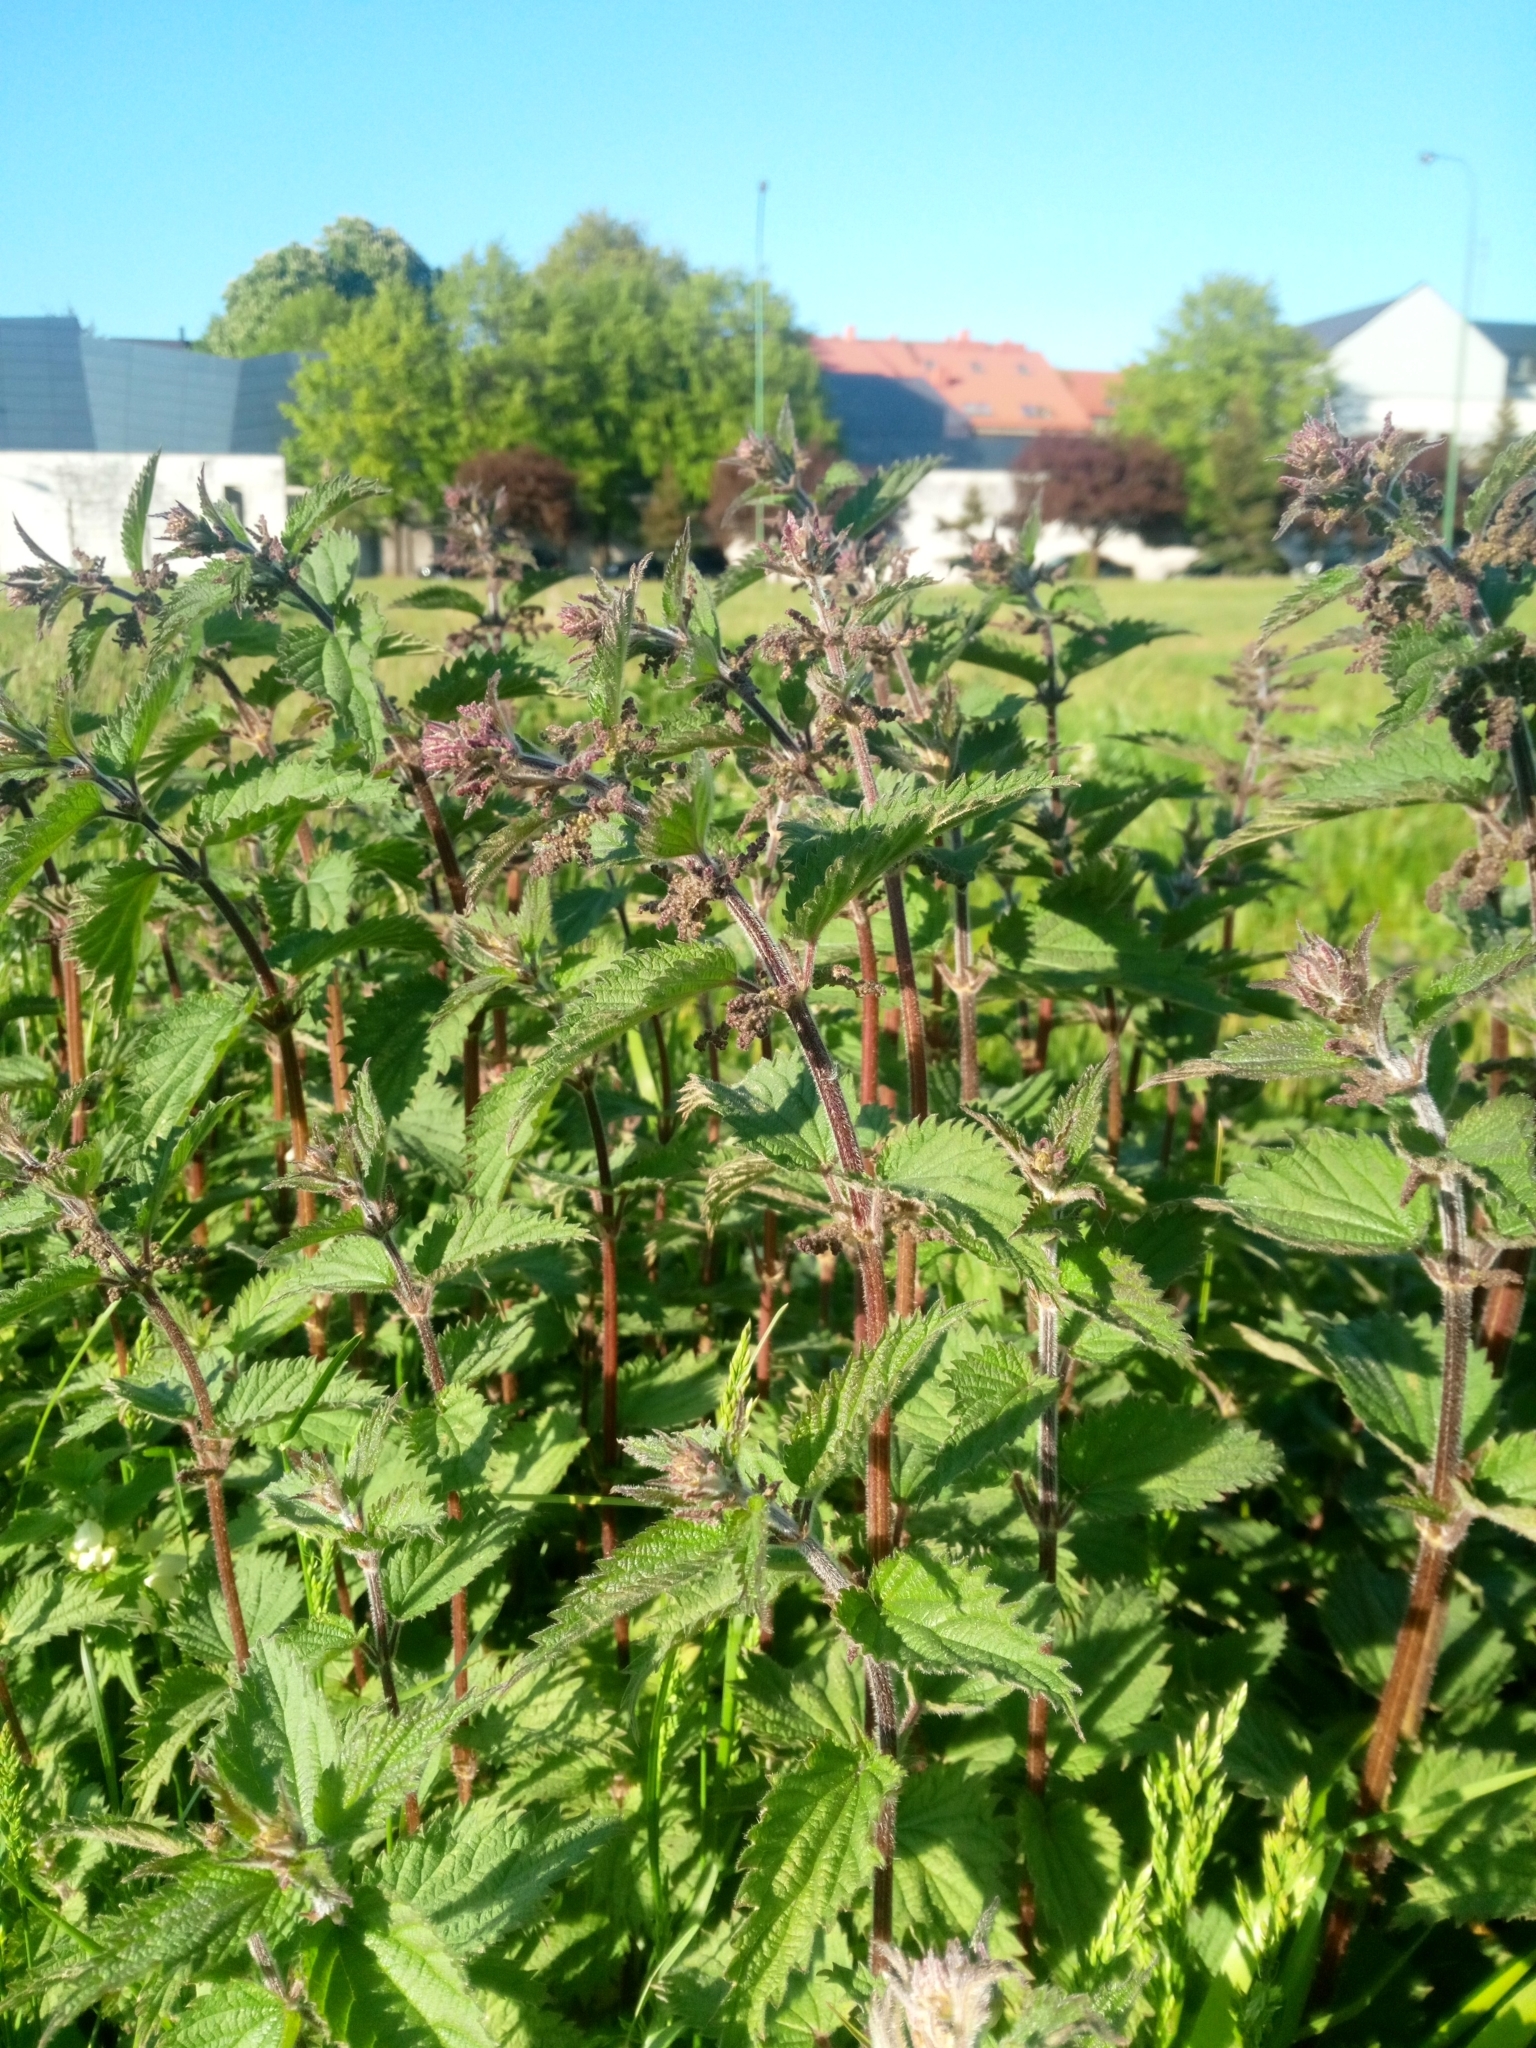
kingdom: Plantae
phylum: Tracheophyta
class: Magnoliopsida
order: Rosales
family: Urticaceae
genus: Urtica
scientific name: Urtica dioica
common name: Common nettle
